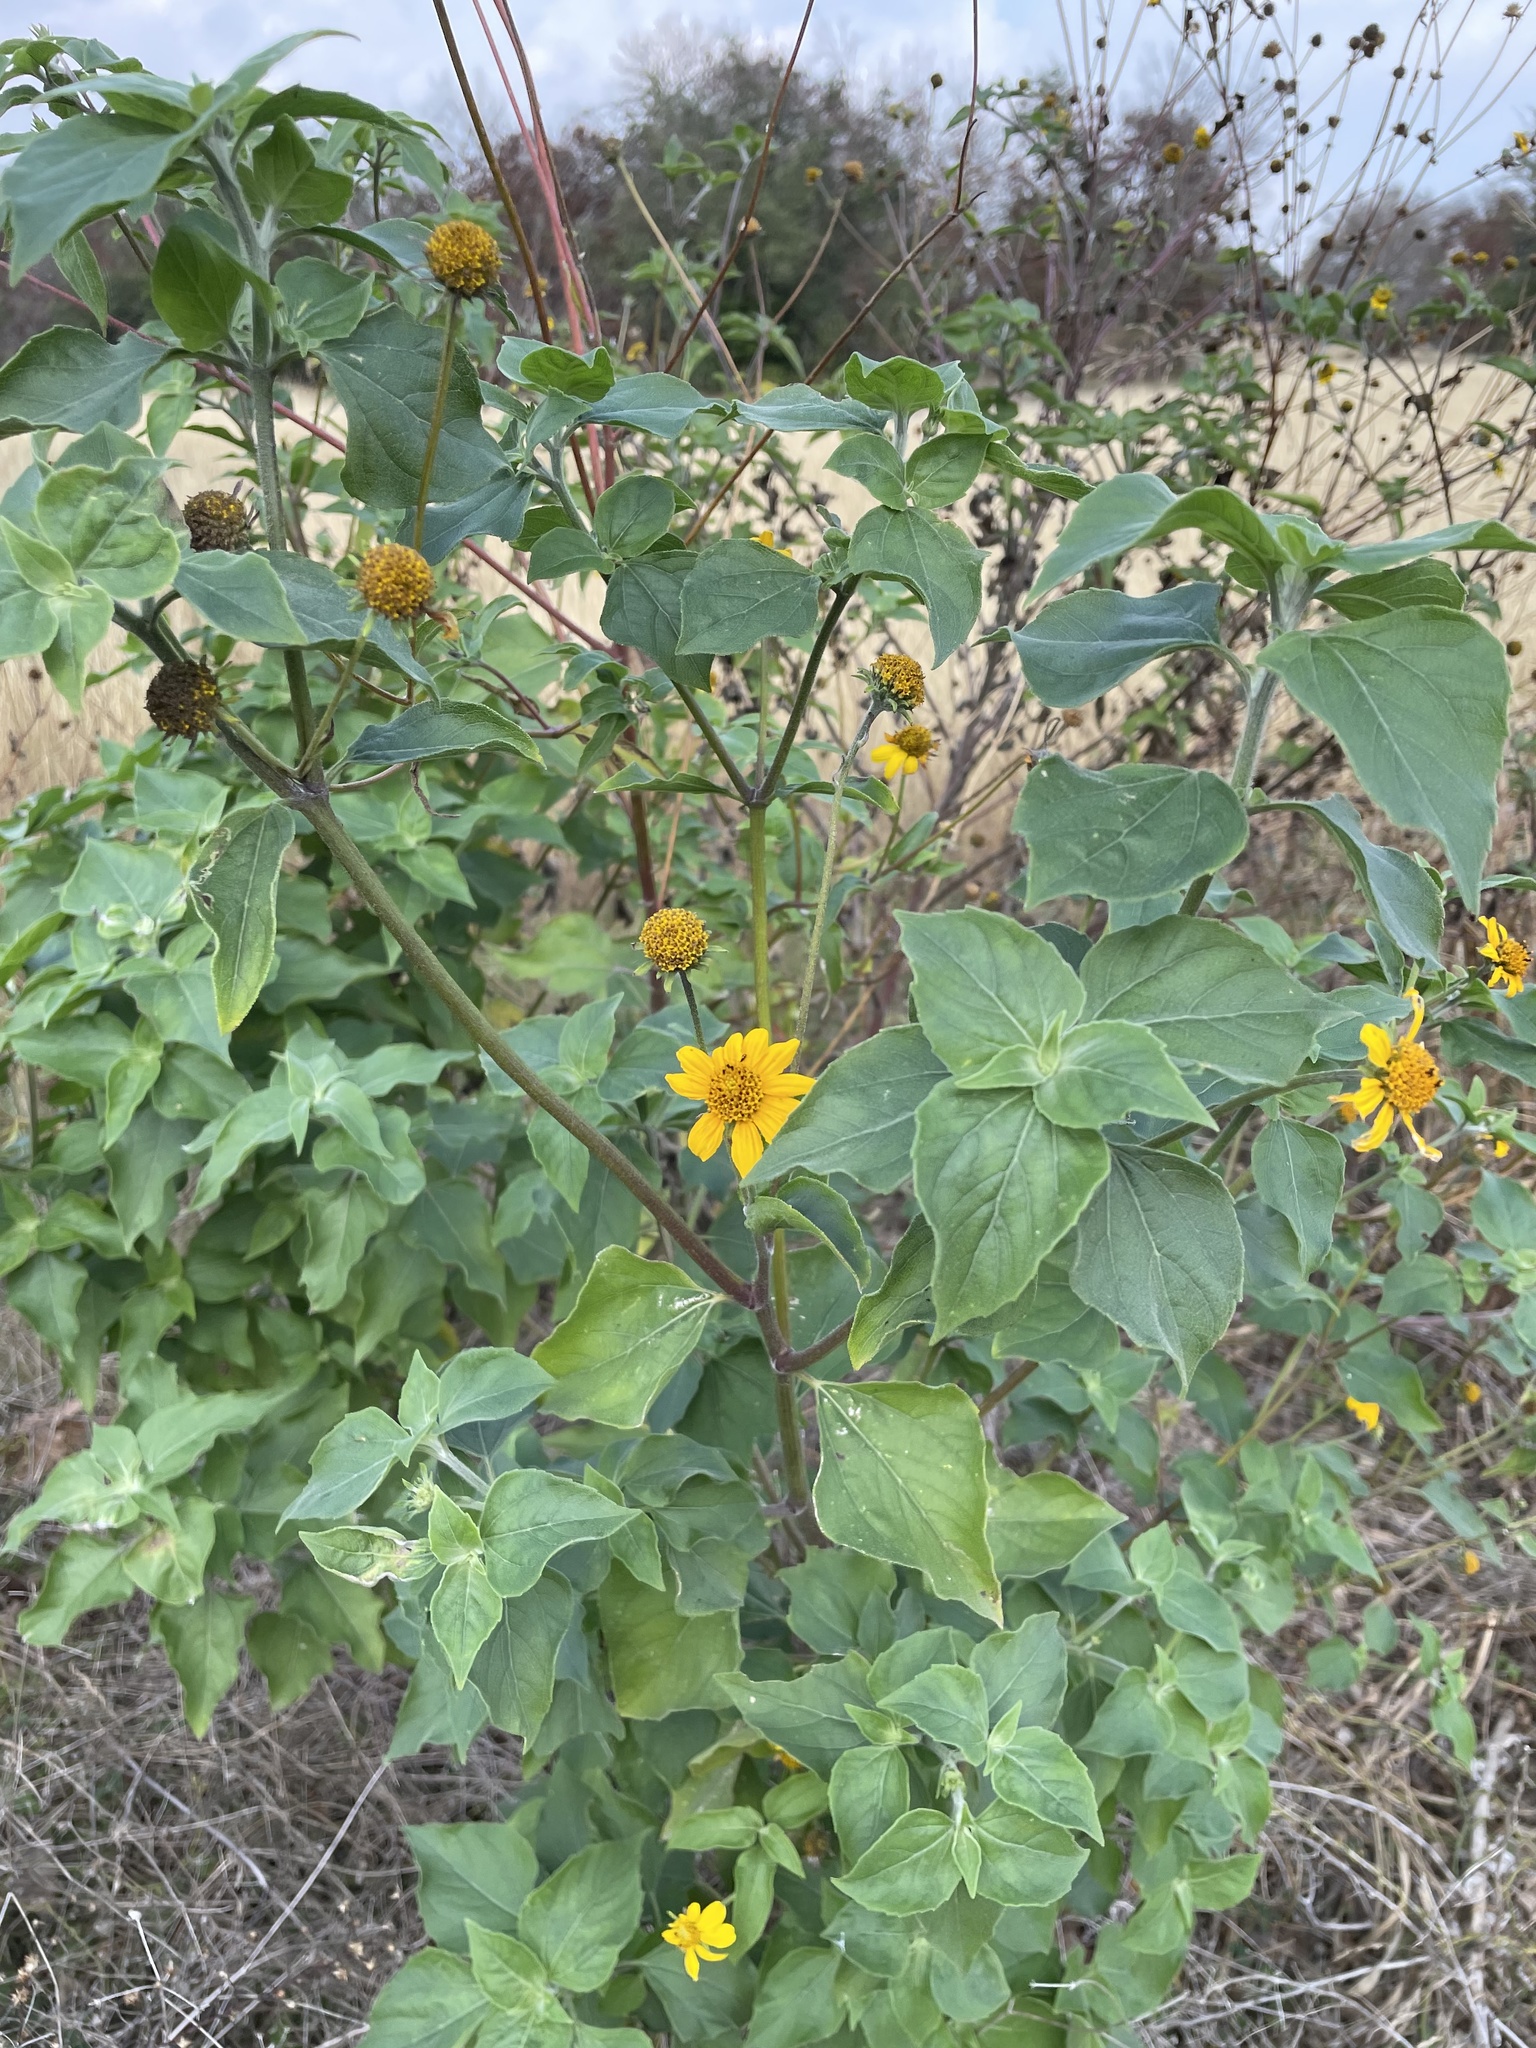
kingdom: Plantae
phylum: Tracheophyta
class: Magnoliopsida
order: Asterales
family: Asteraceae
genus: Viguiera
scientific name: Viguiera dentata
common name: Toothleaf
